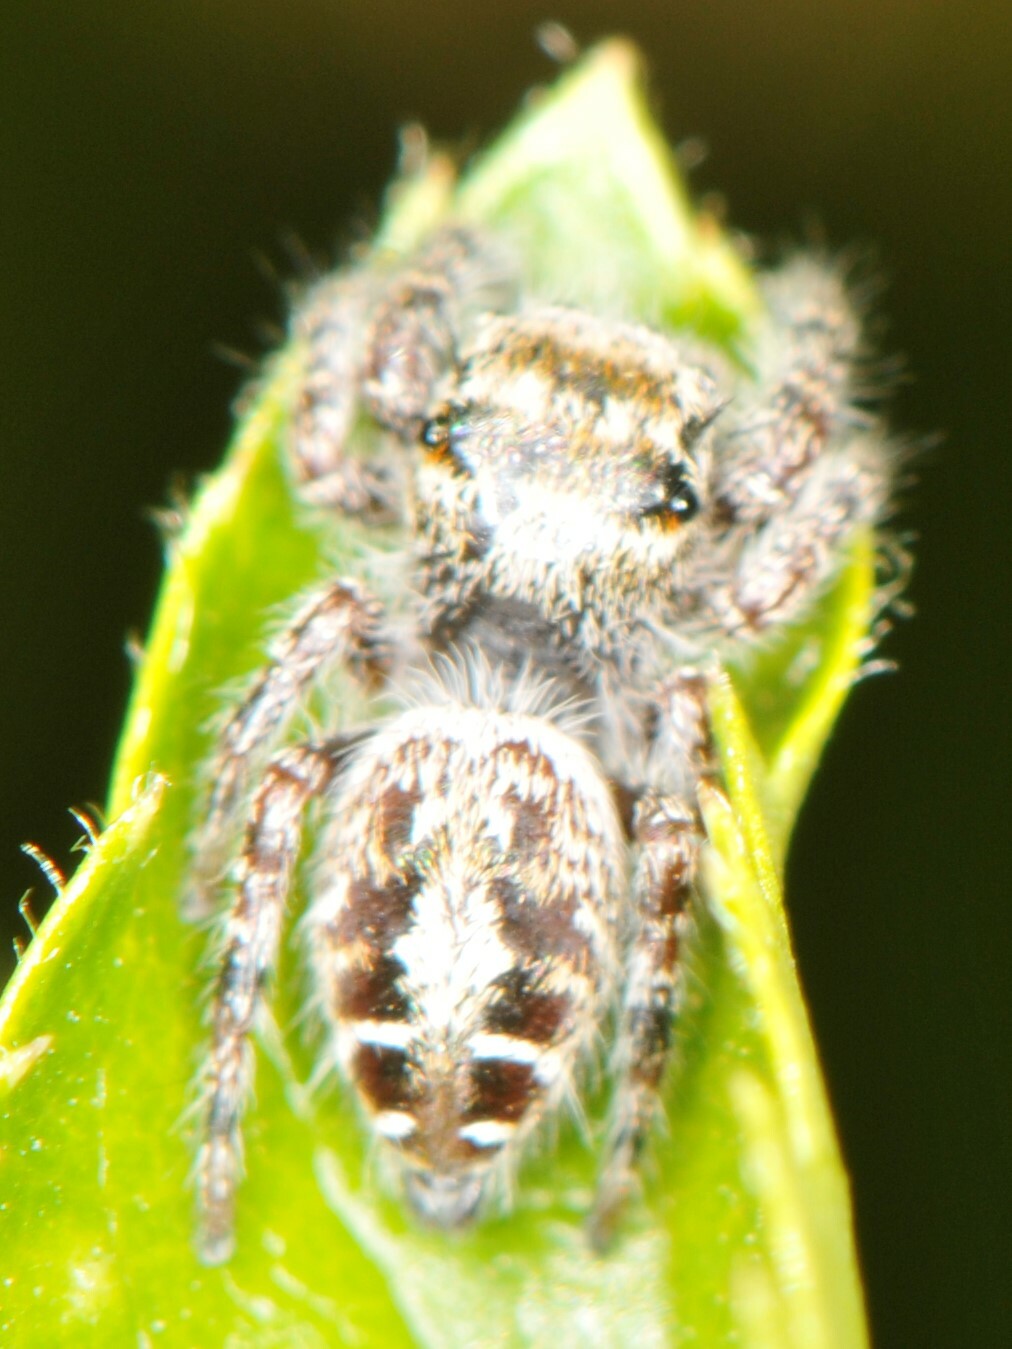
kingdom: Animalia
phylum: Arthropoda
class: Arachnida
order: Araneae
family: Salticidae
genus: Phidippus
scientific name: Phidippus comatus
